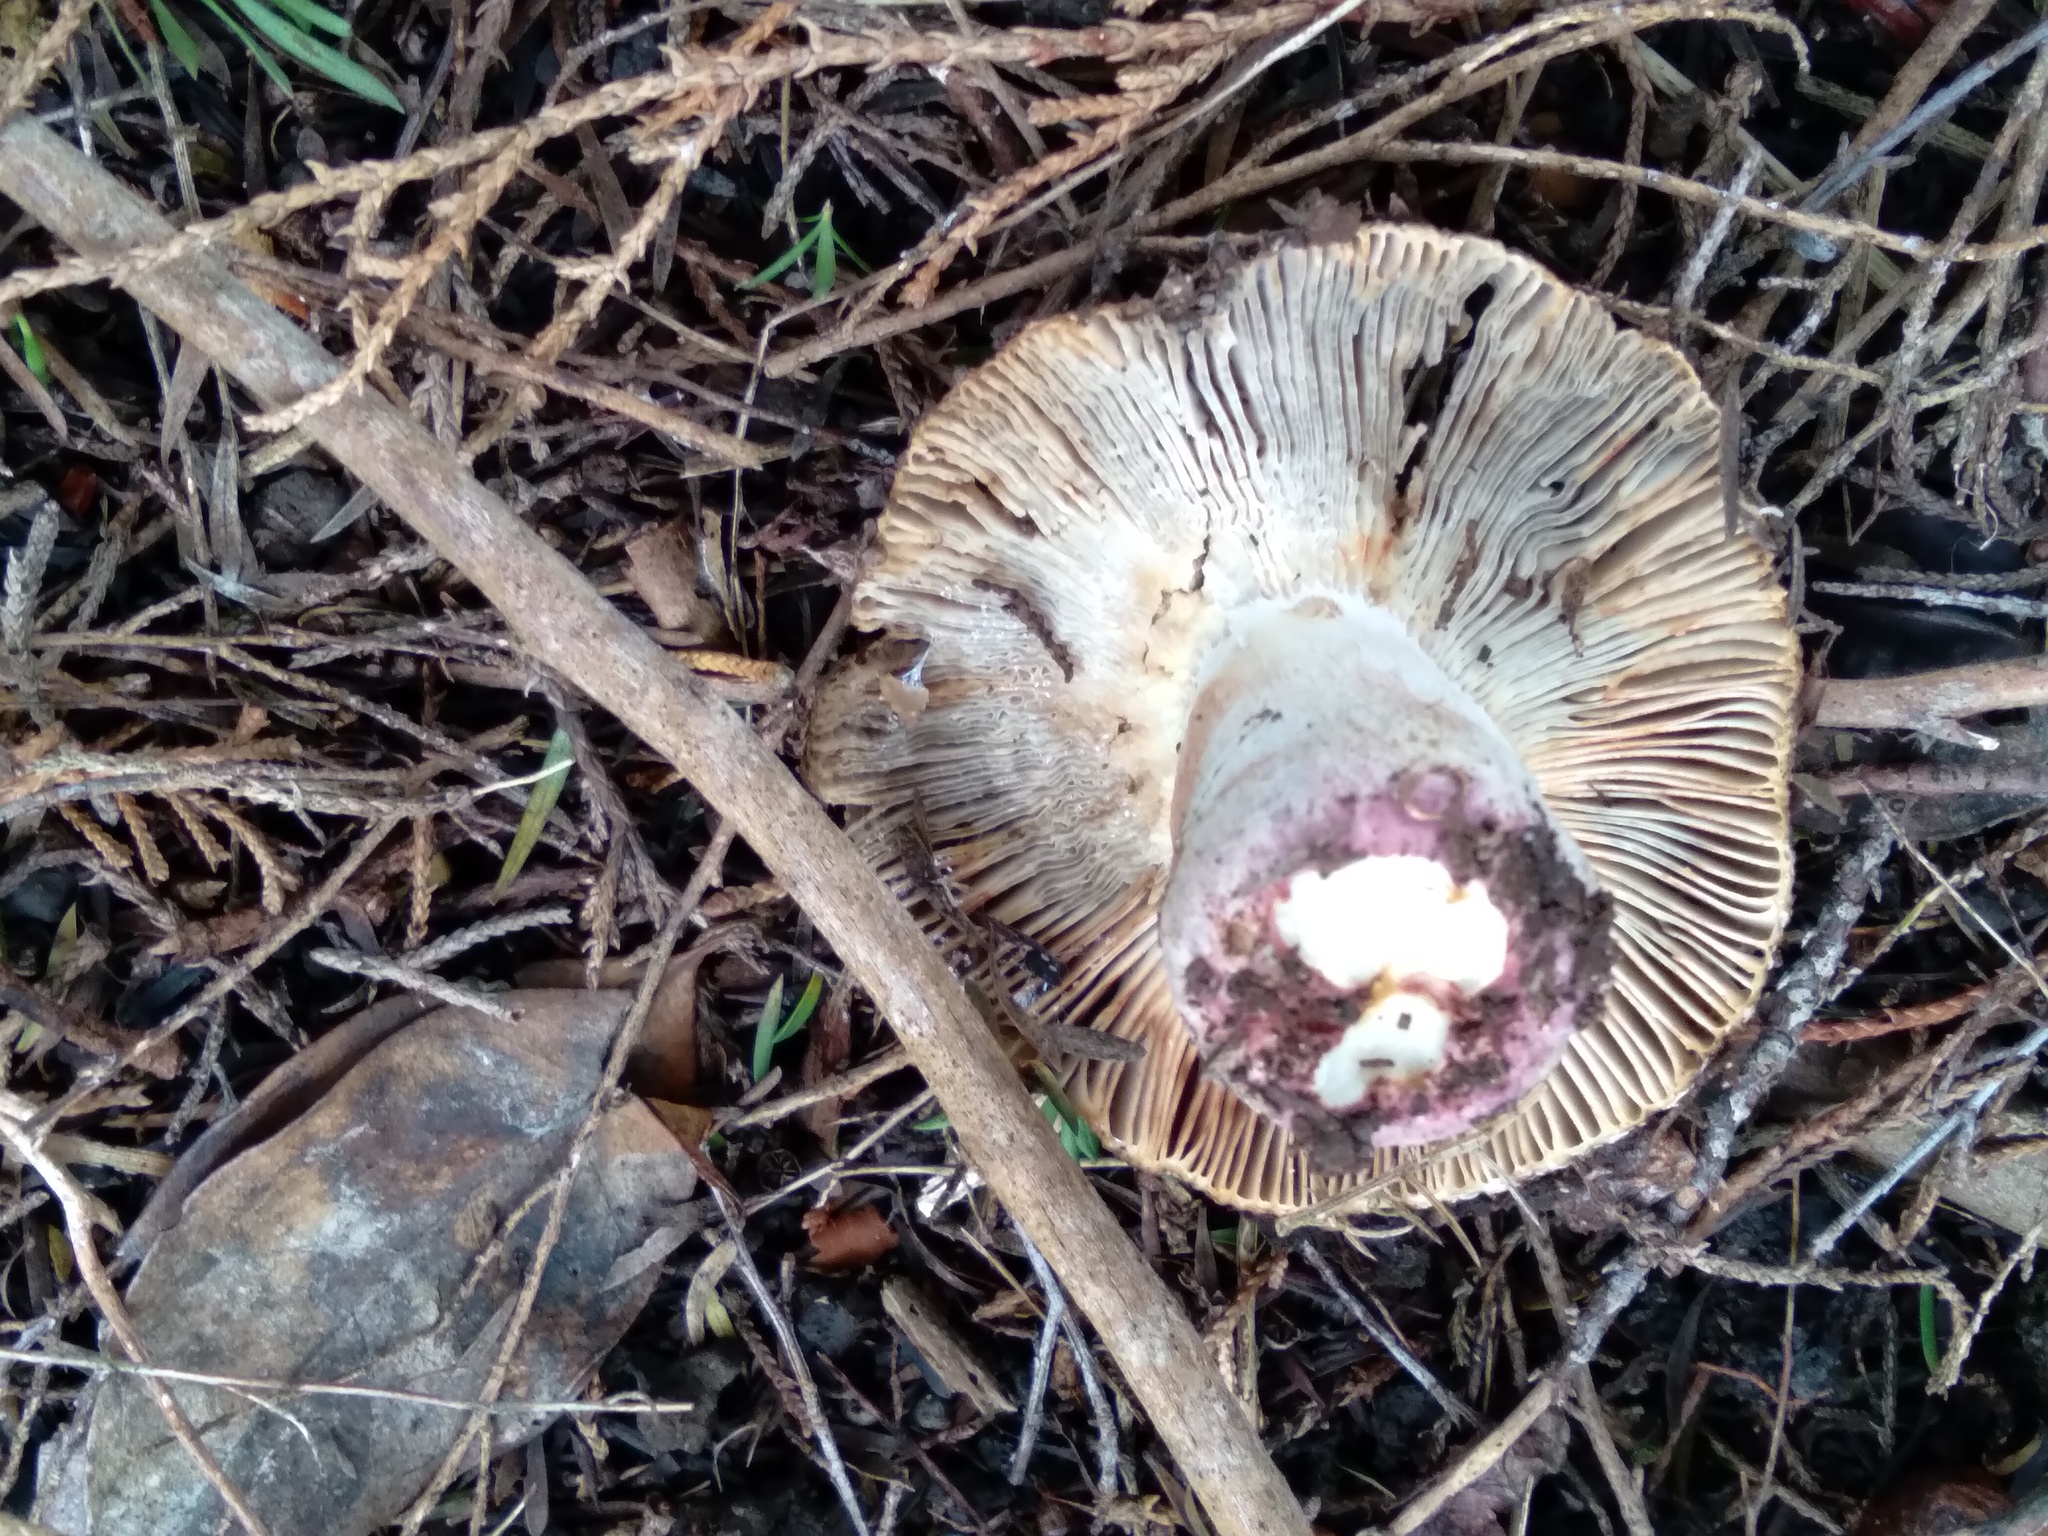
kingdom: Fungi
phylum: Basidiomycota
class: Agaricomycetes
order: Russulales
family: Russulaceae
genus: Russula
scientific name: Russula vinaceocuticulata
